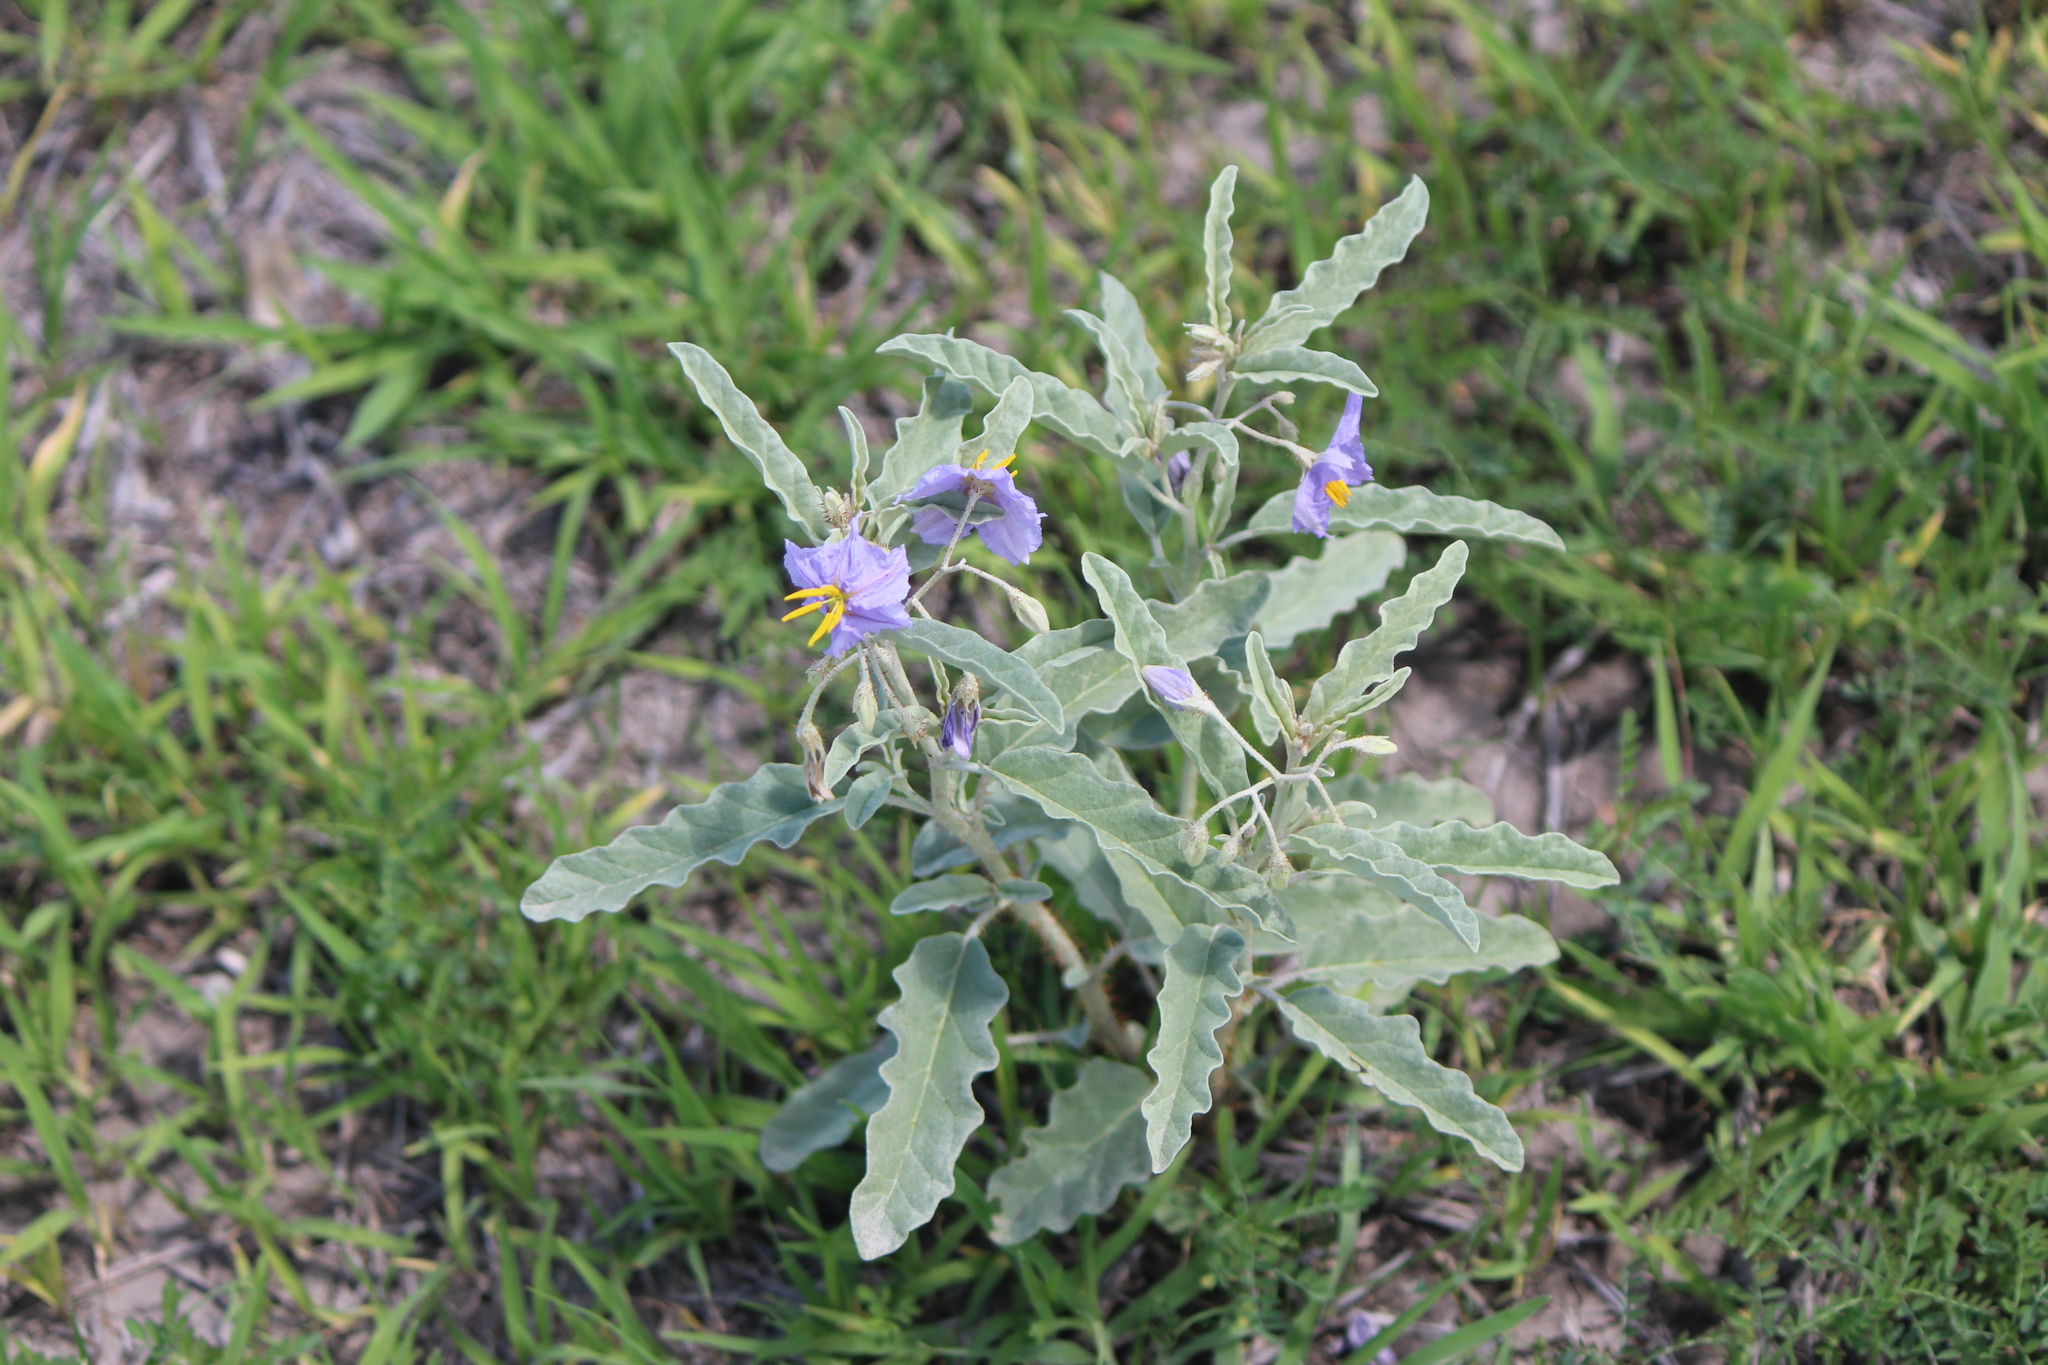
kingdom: Plantae
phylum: Tracheophyta
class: Magnoliopsida
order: Solanales
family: Solanaceae
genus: Solanum
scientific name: Solanum elaeagnifolium
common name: Silverleaf nightshade
